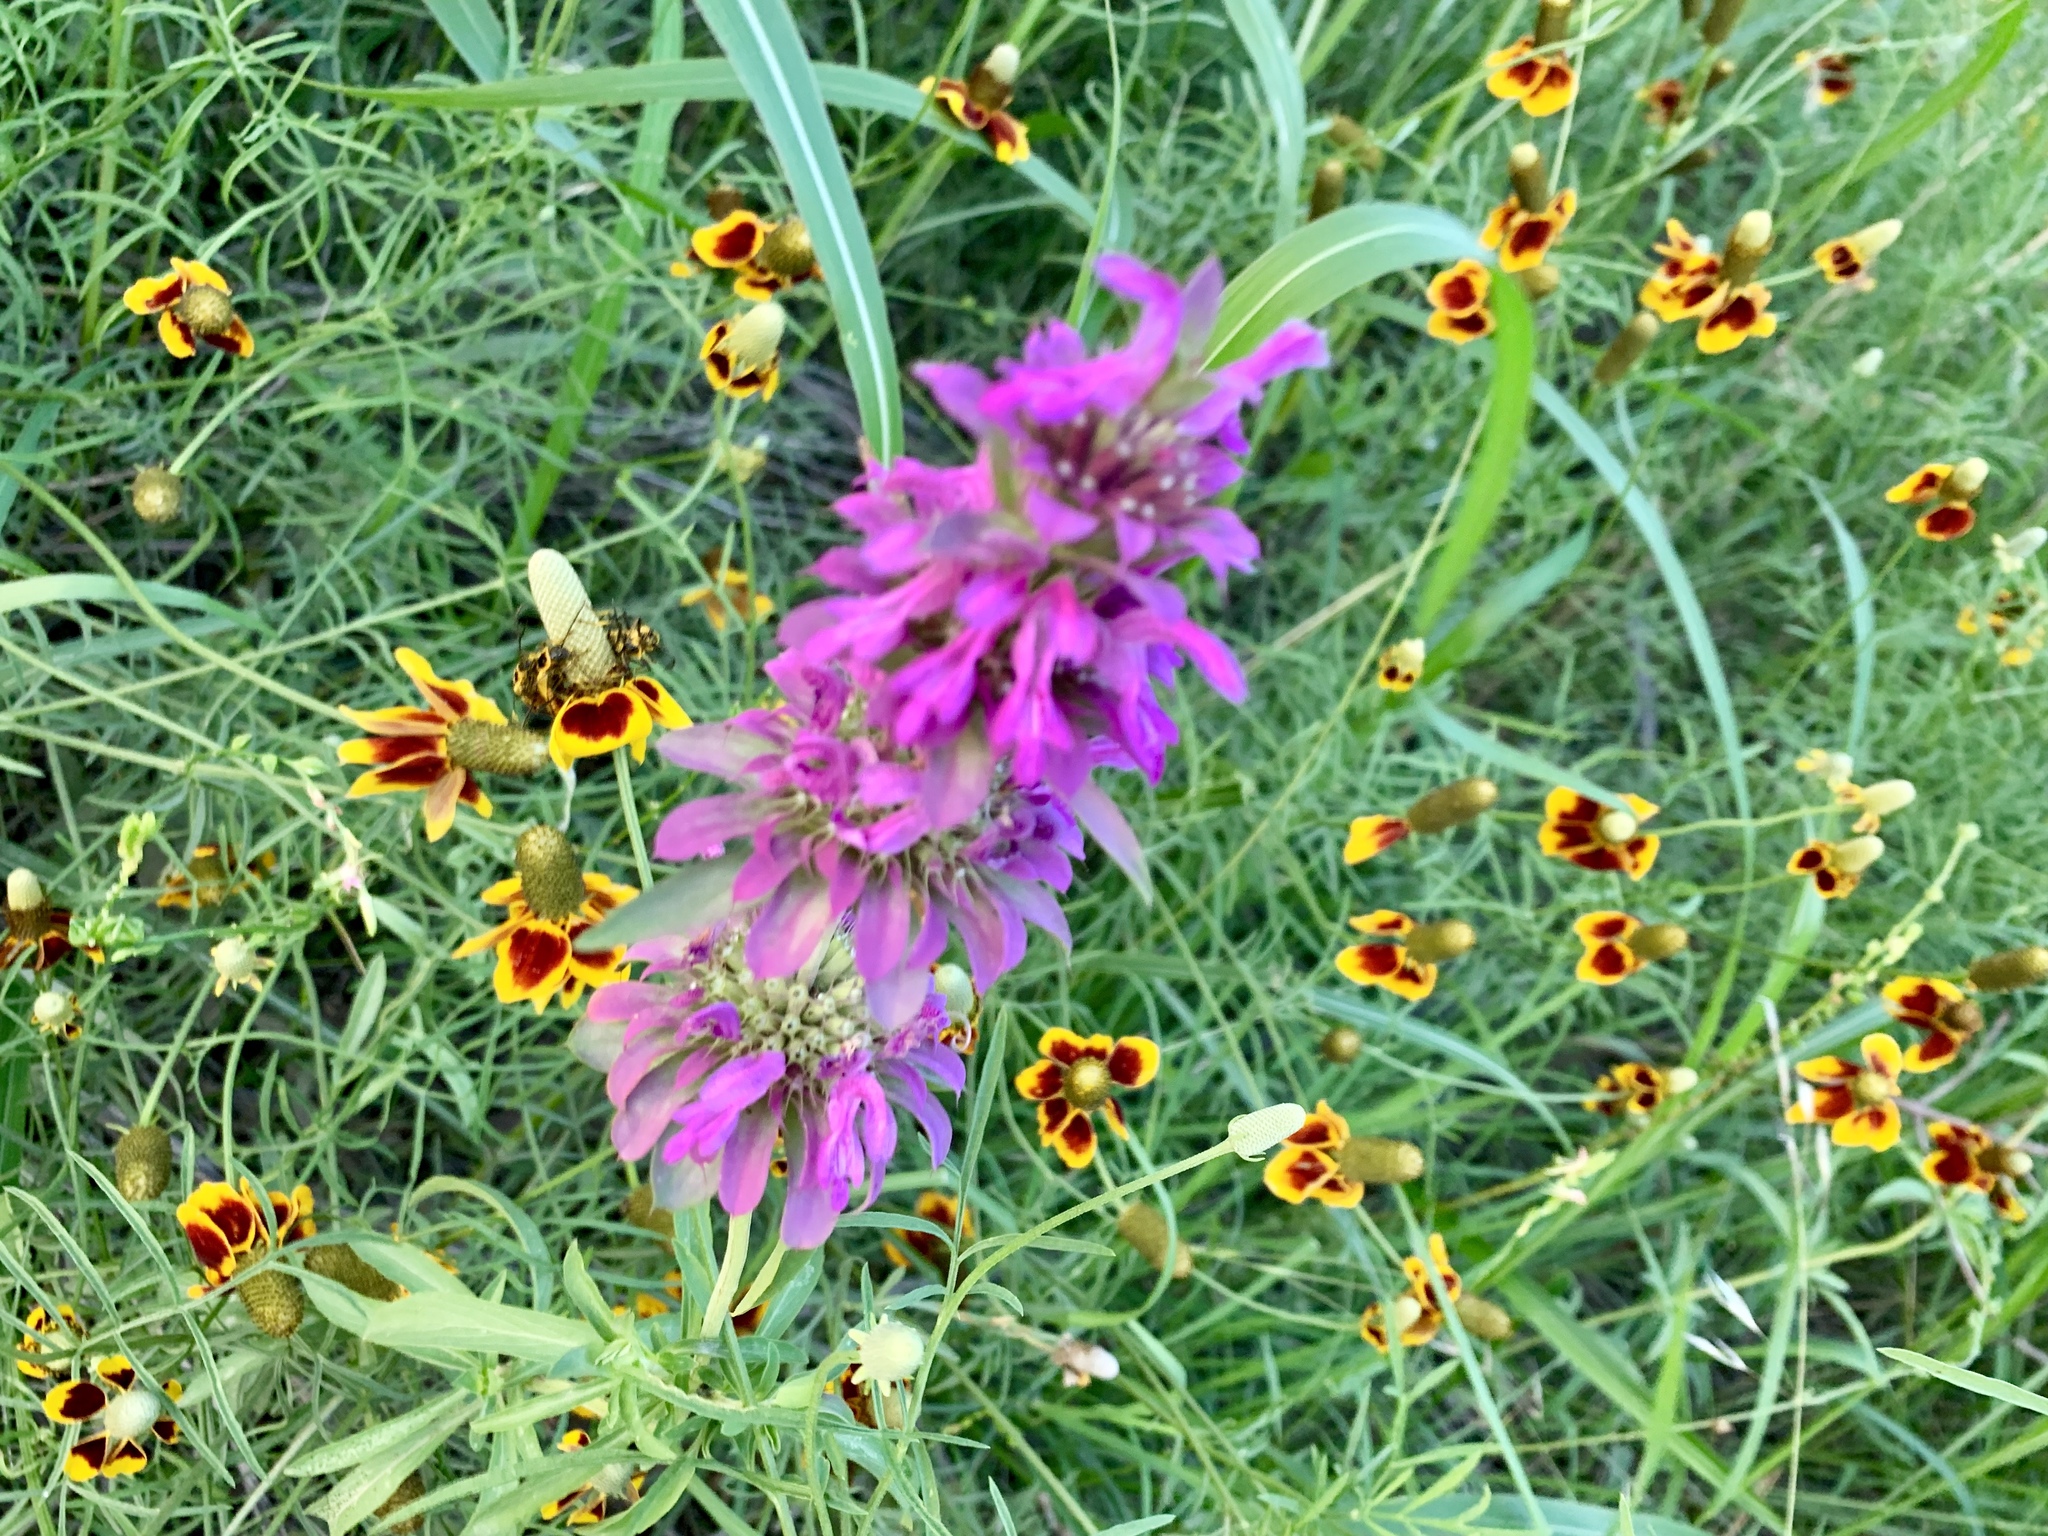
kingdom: Plantae
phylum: Tracheophyta
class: Magnoliopsida
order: Lamiales
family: Lamiaceae
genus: Monarda
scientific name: Monarda citriodora
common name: Lemon beebalm
